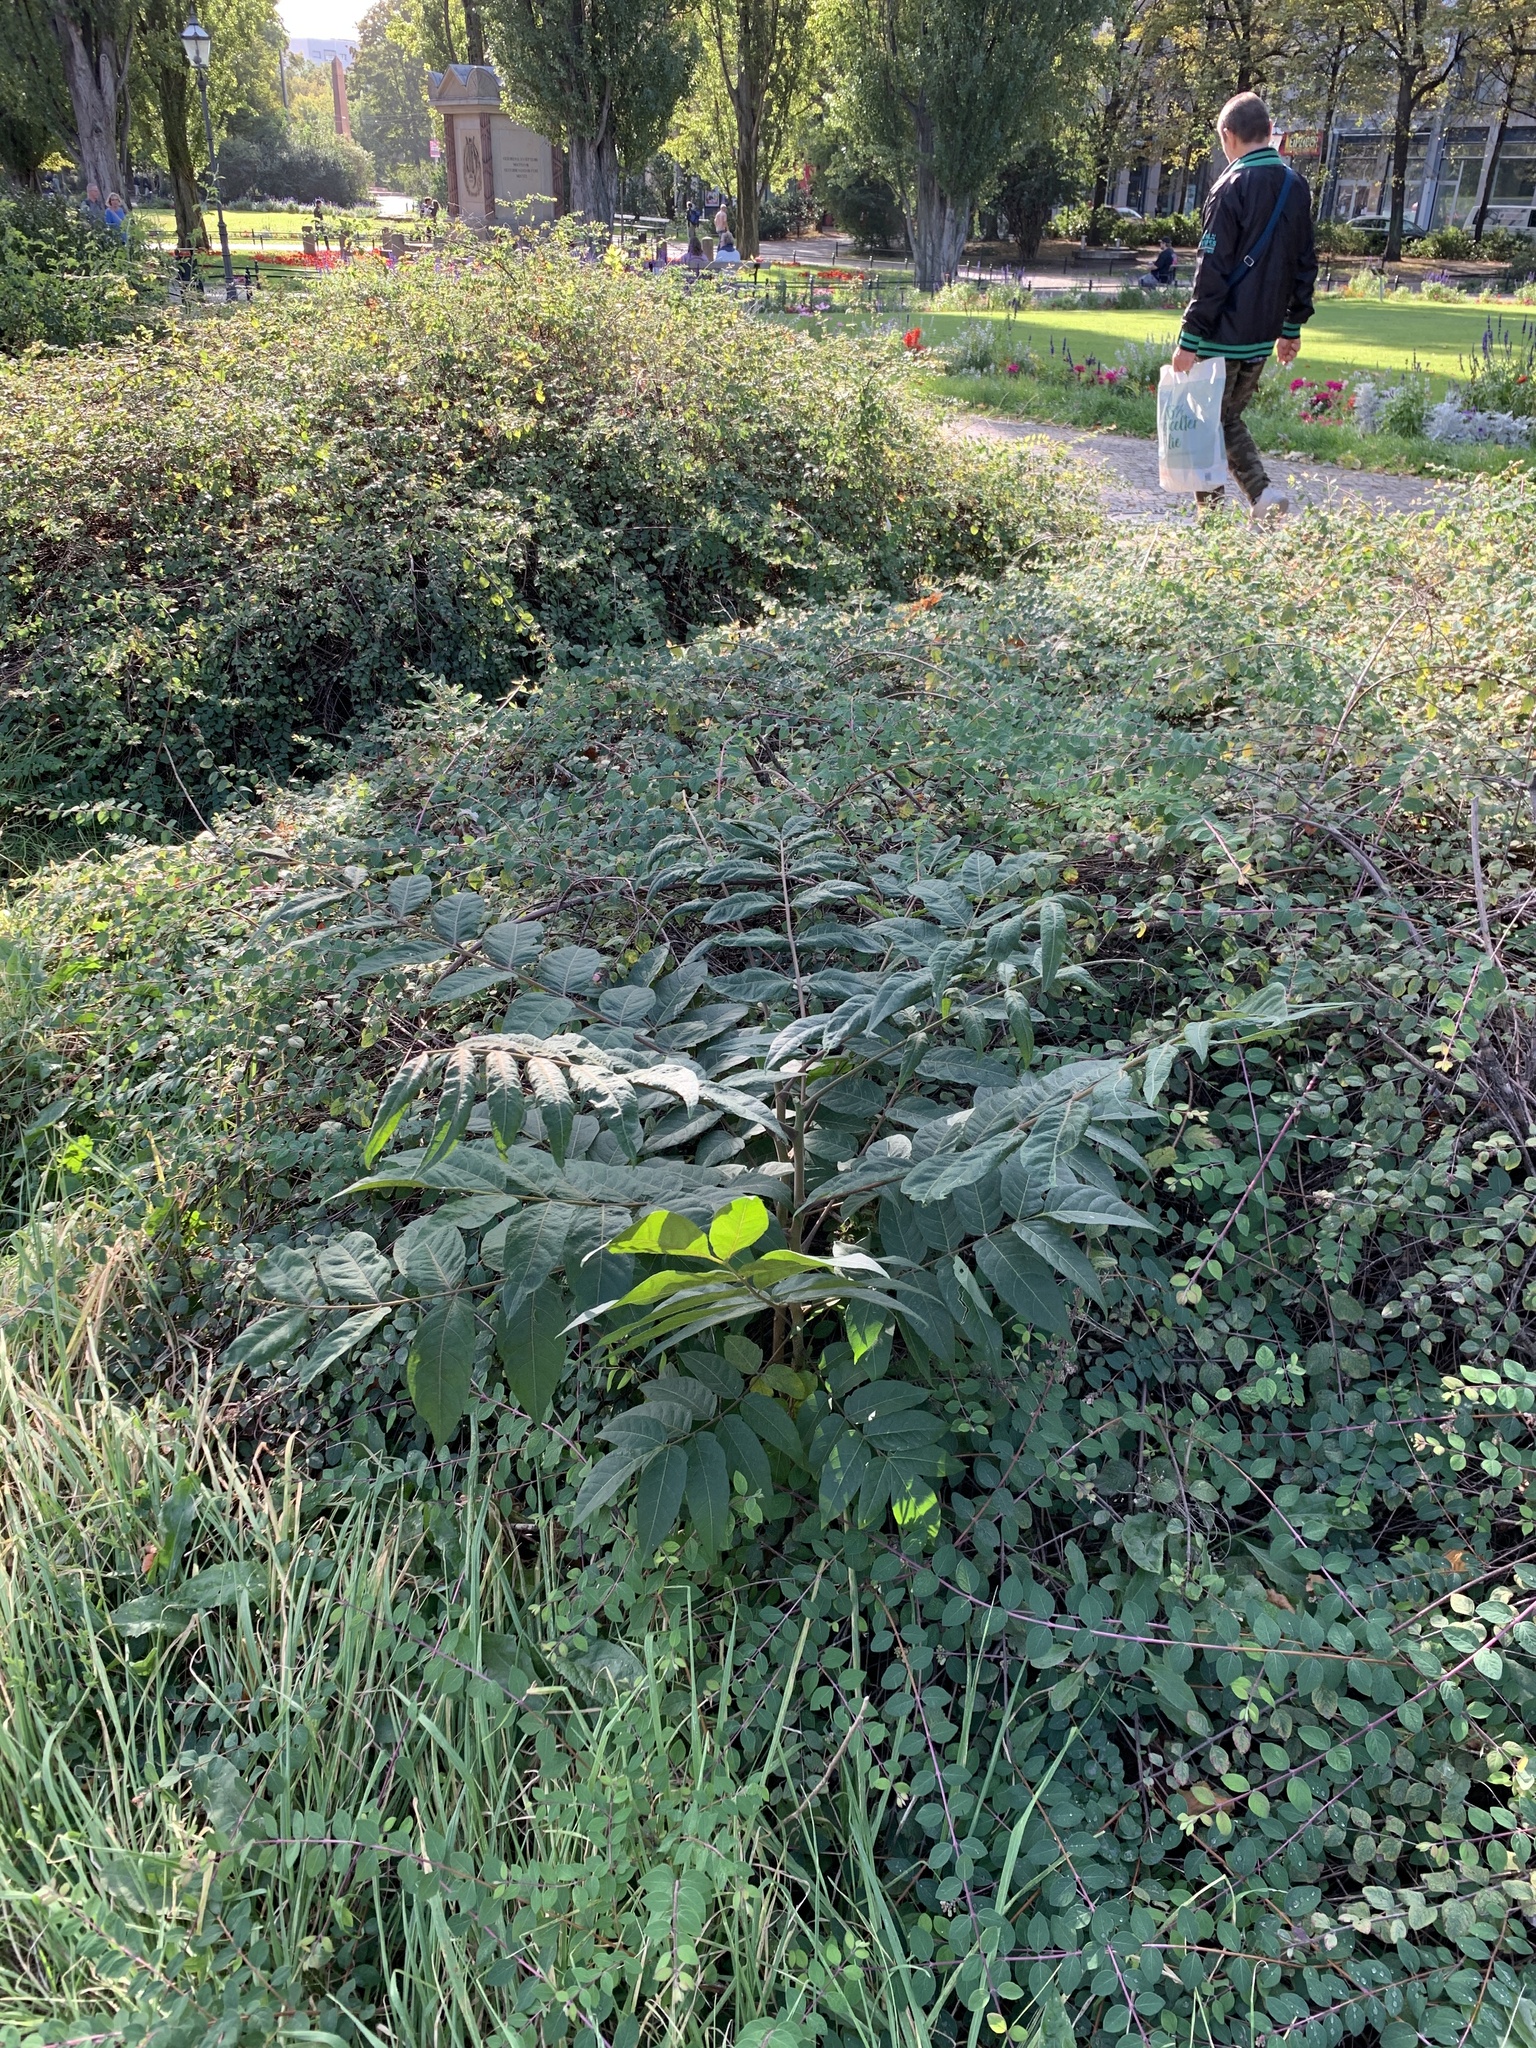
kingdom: Plantae
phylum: Tracheophyta
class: Magnoliopsida
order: Sapindales
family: Simaroubaceae
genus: Ailanthus
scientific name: Ailanthus altissima
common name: Tree-of-heaven
